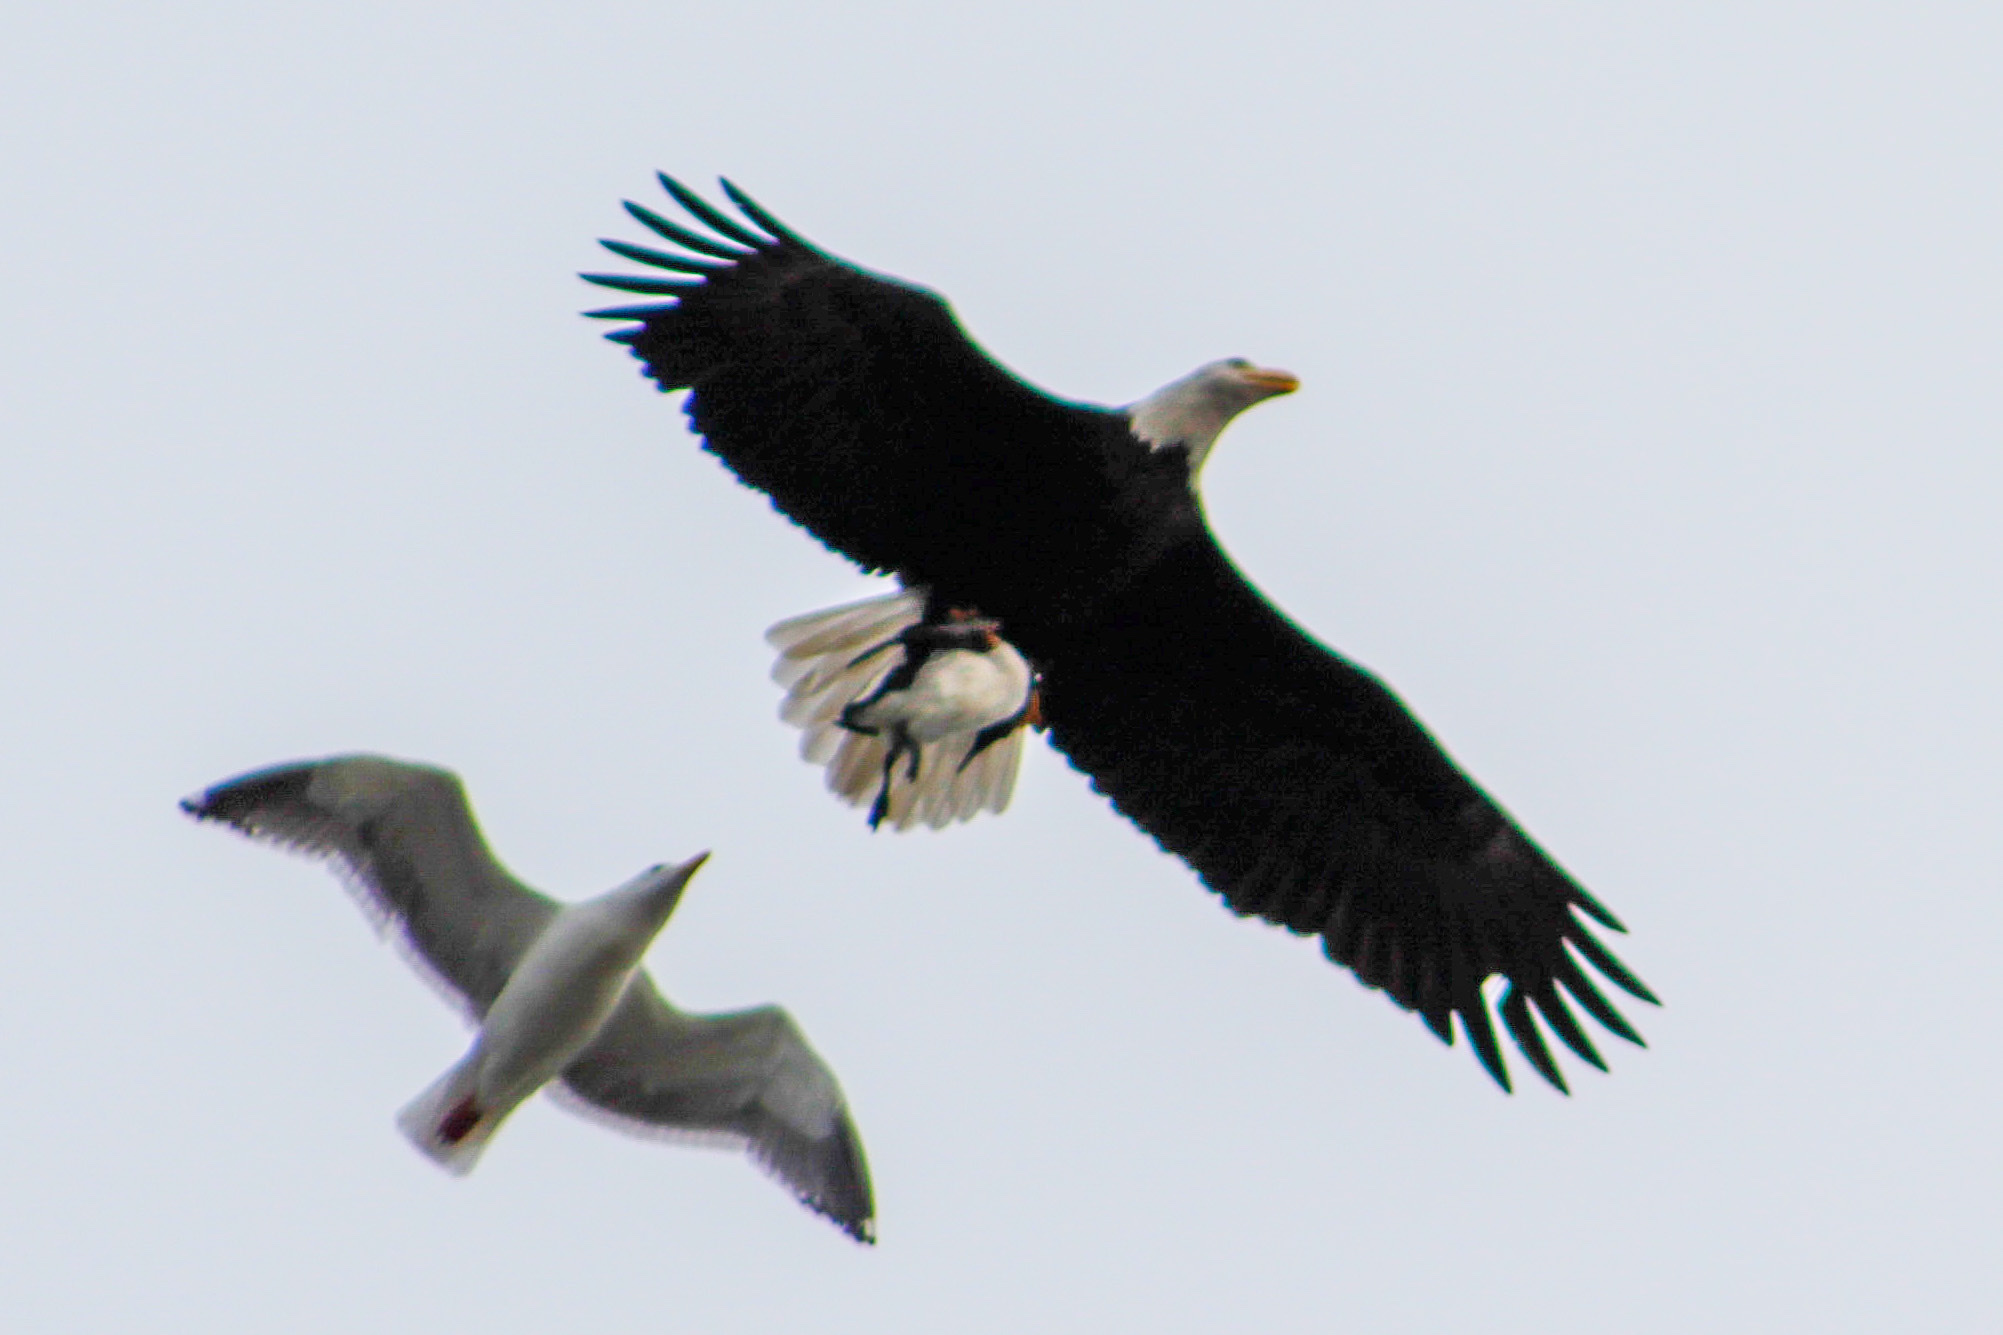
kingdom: Animalia
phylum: Chordata
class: Aves
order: Accipitriformes
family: Accipitridae
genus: Haliaeetus
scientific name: Haliaeetus leucocephalus
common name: Bald eagle
